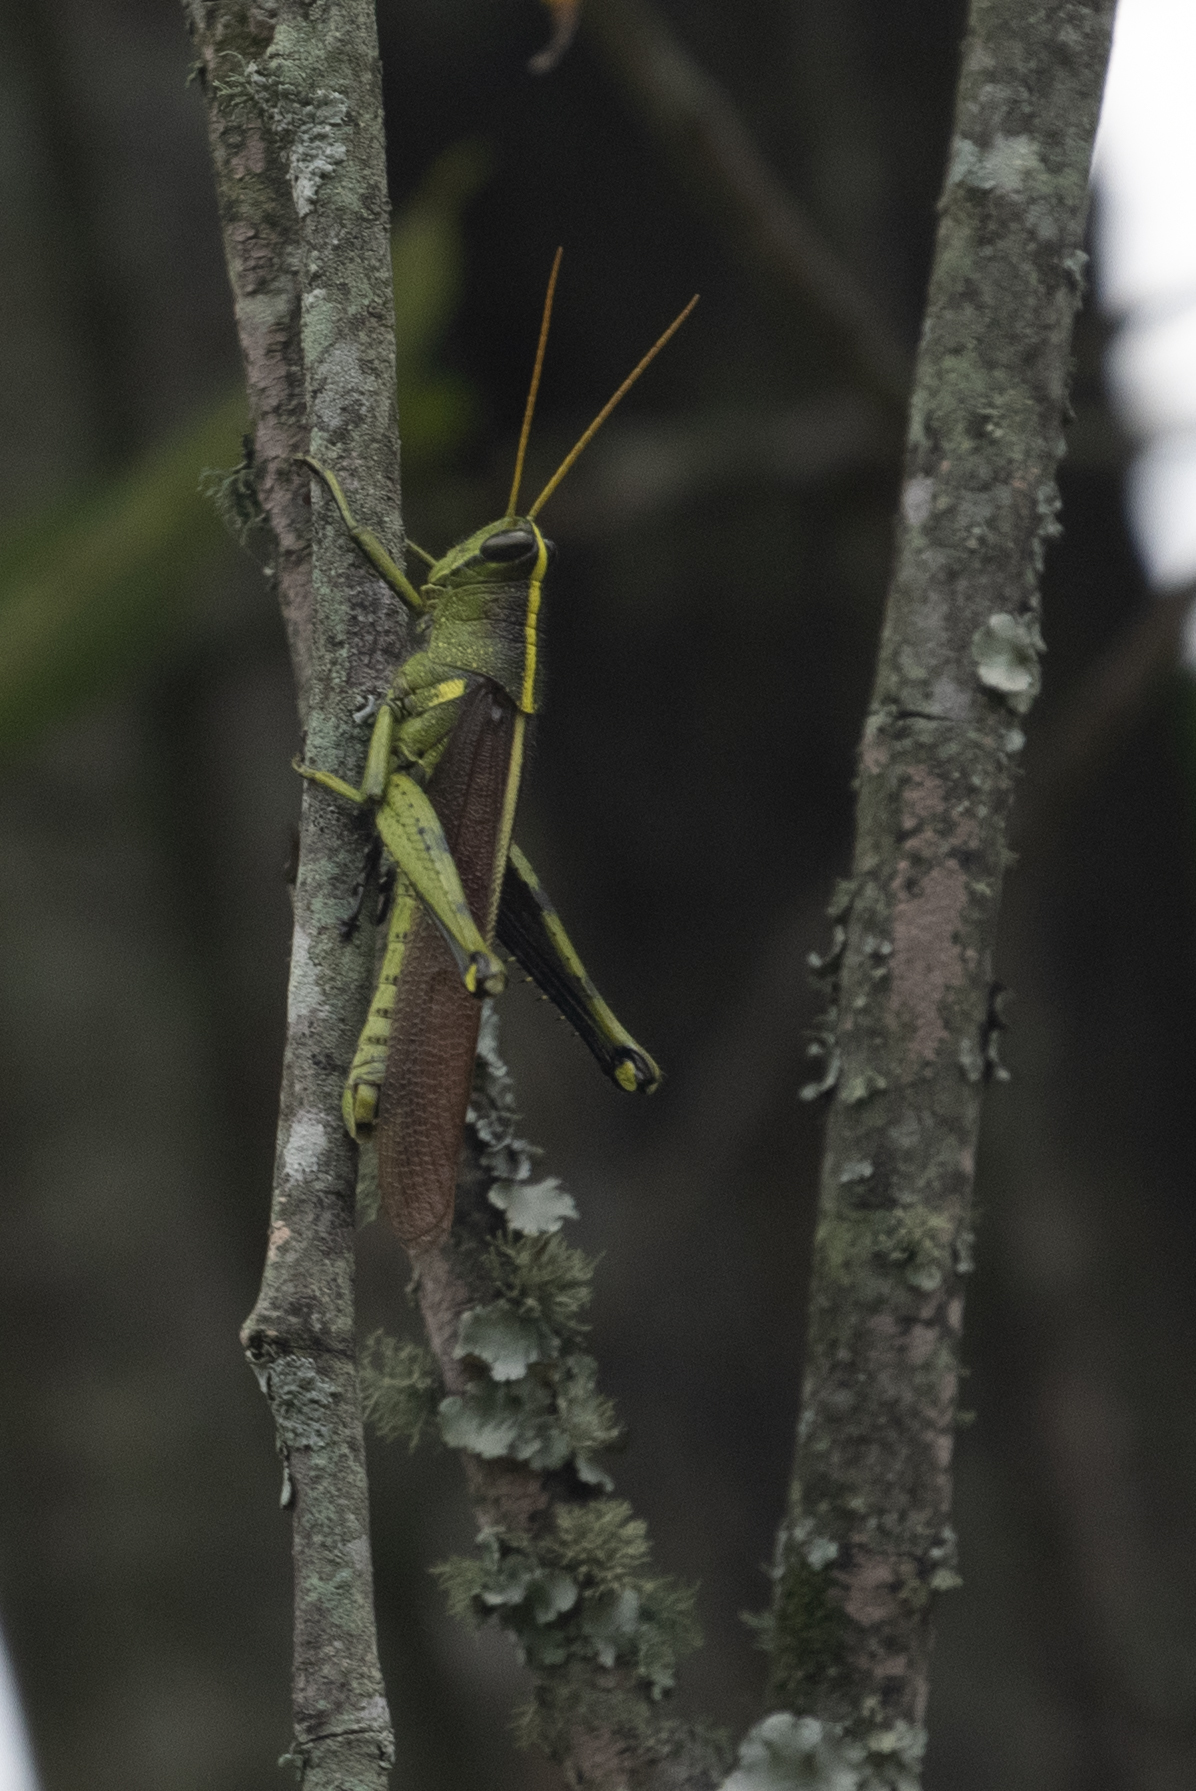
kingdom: Animalia
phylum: Arthropoda
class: Insecta
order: Orthoptera
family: Acrididae
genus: Schistocerca
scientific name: Schistocerca obscura
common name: Obscure bird grasshopper
